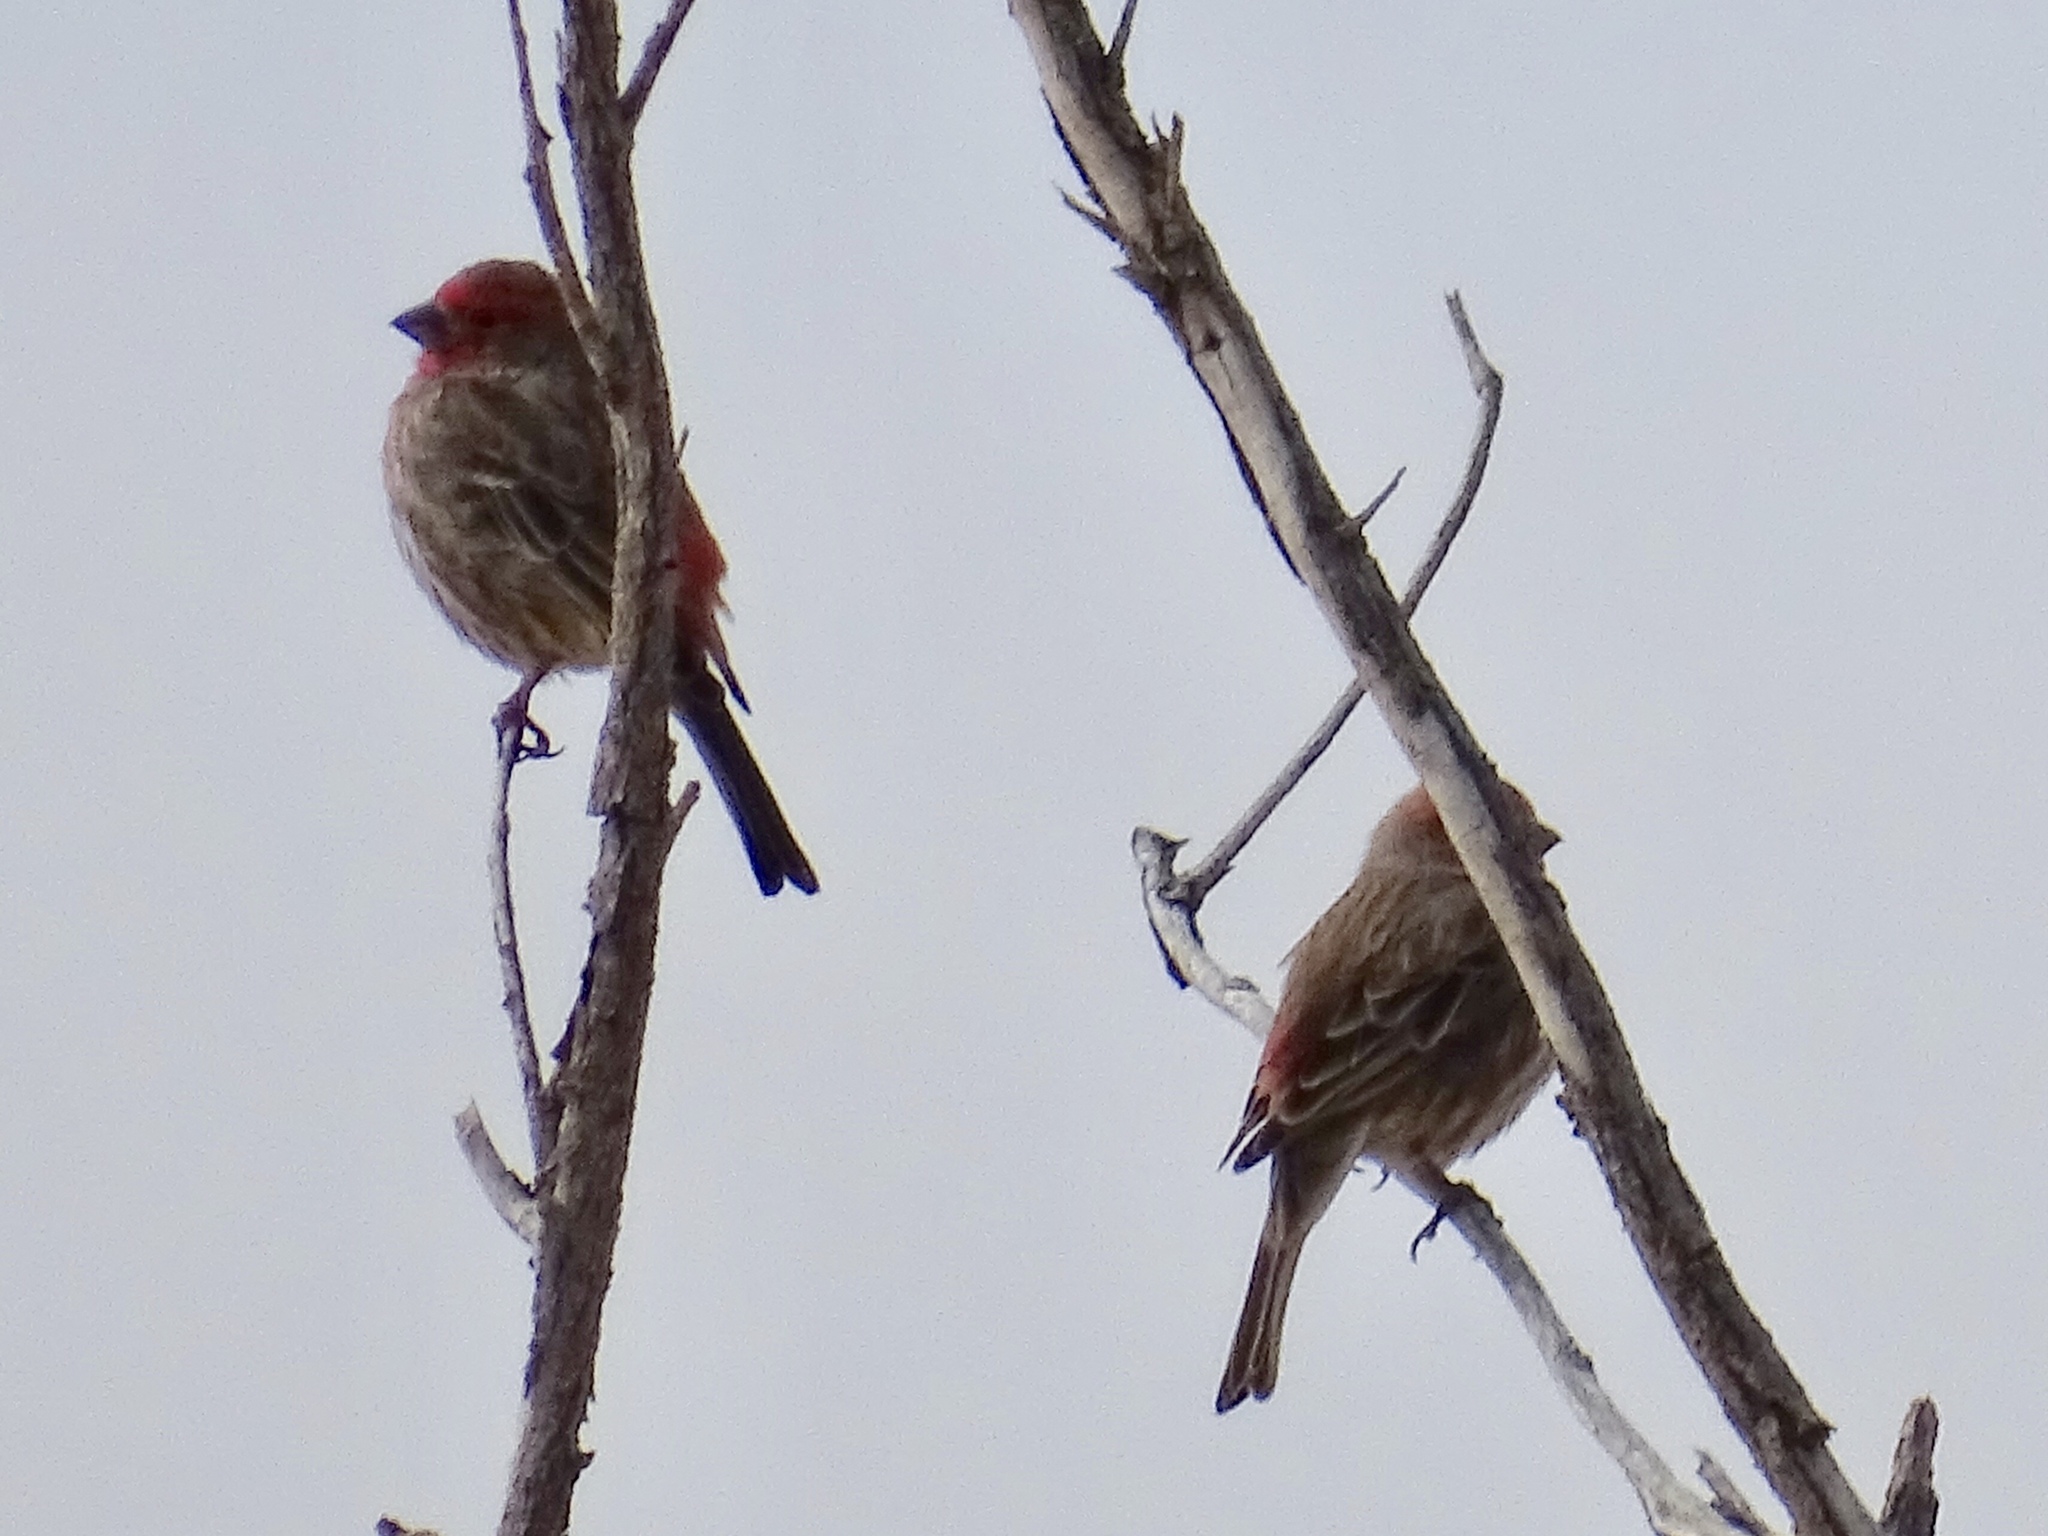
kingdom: Animalia
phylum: Chordata
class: Aves
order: Passeriformes
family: Fringillidae
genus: Haemorhous
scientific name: Haemorhous mexicanus
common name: House finch
